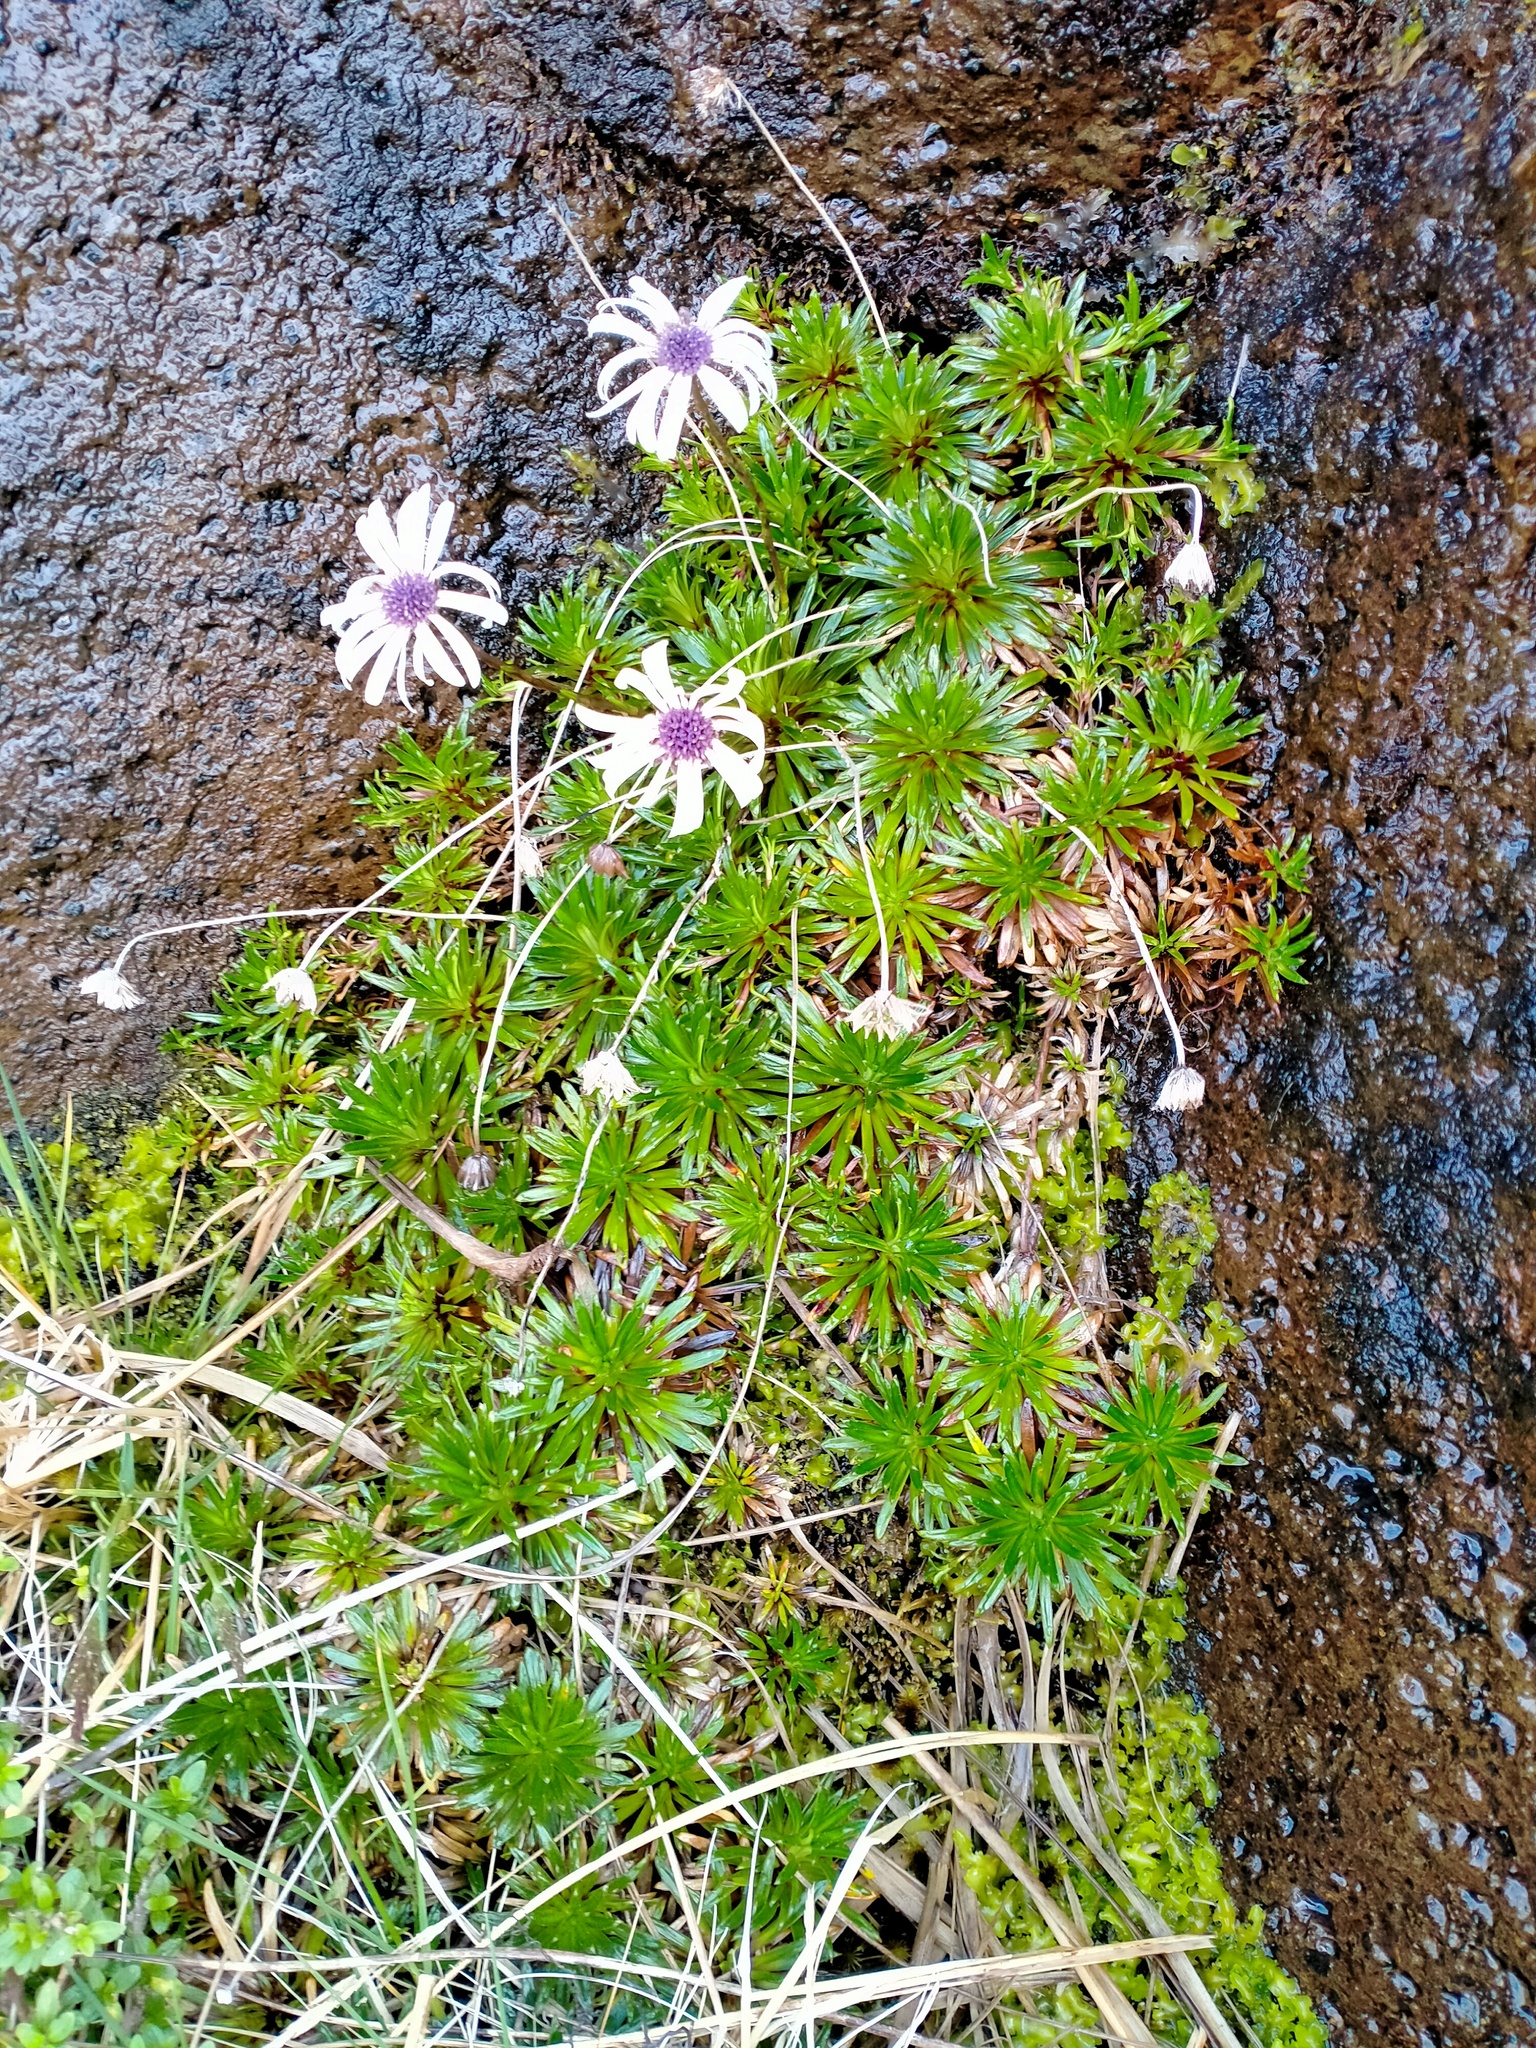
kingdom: Plantae
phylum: Tracheophyta
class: Magnoliopsida
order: Asterales
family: Asteraceae
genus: Damnamenia
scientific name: Damnamenia vernicosa
